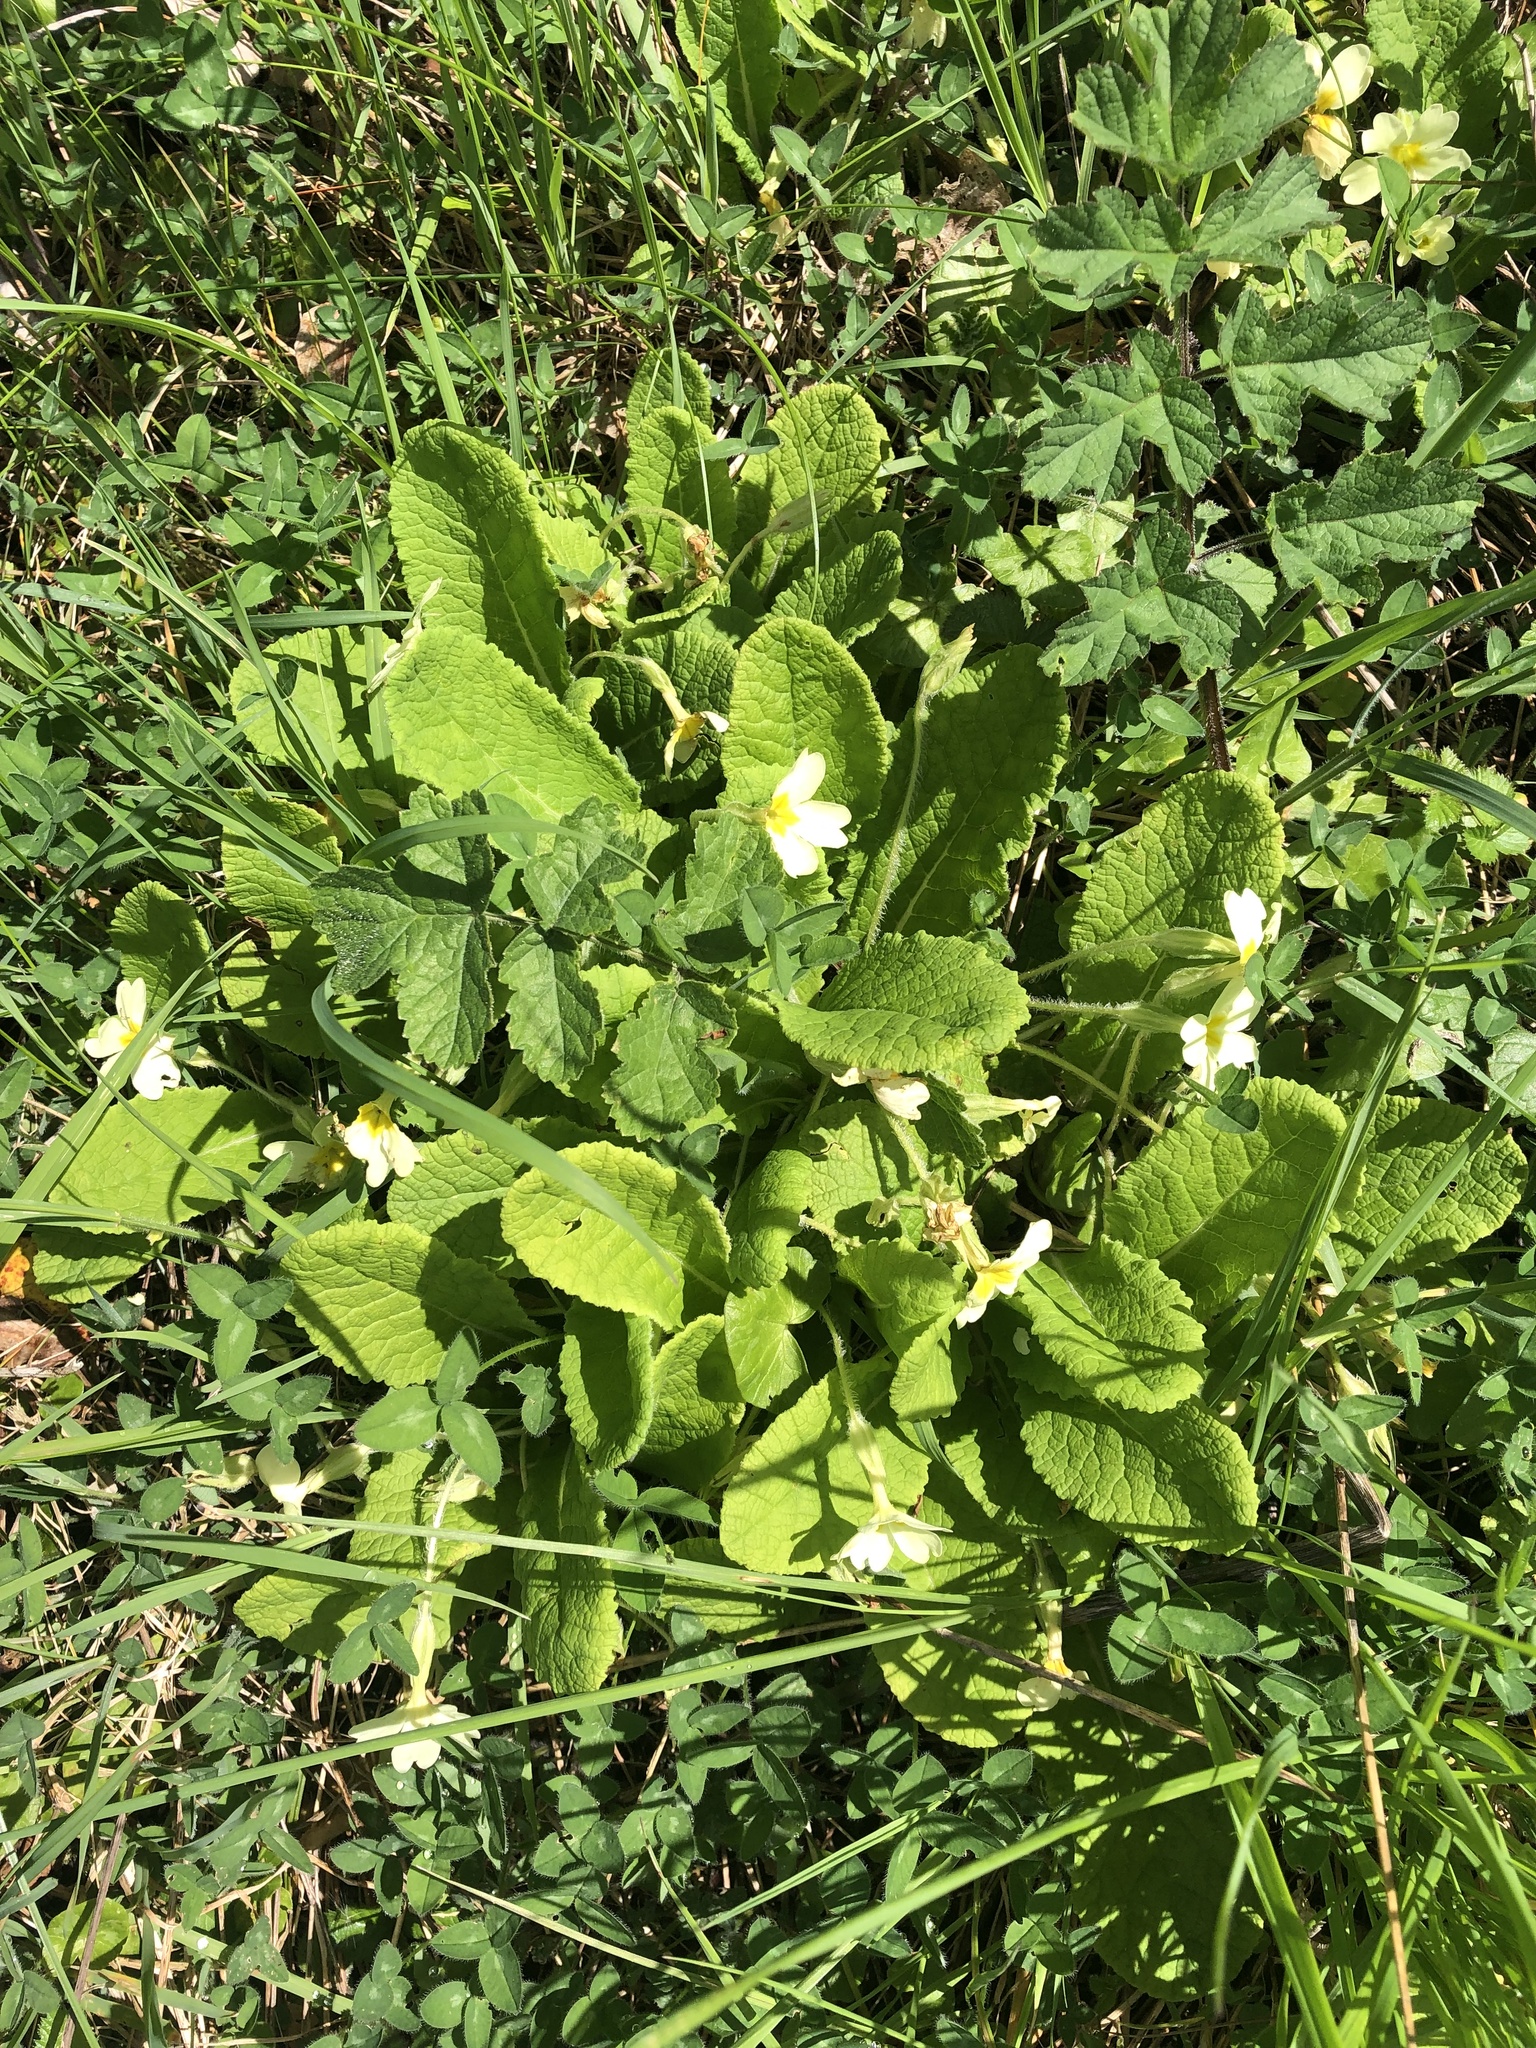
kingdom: Plantae
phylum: Tracheophyta
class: Magnoliopsida
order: Ericales
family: Primulaceae
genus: Primula
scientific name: Primula vulgaris
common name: Primrose
